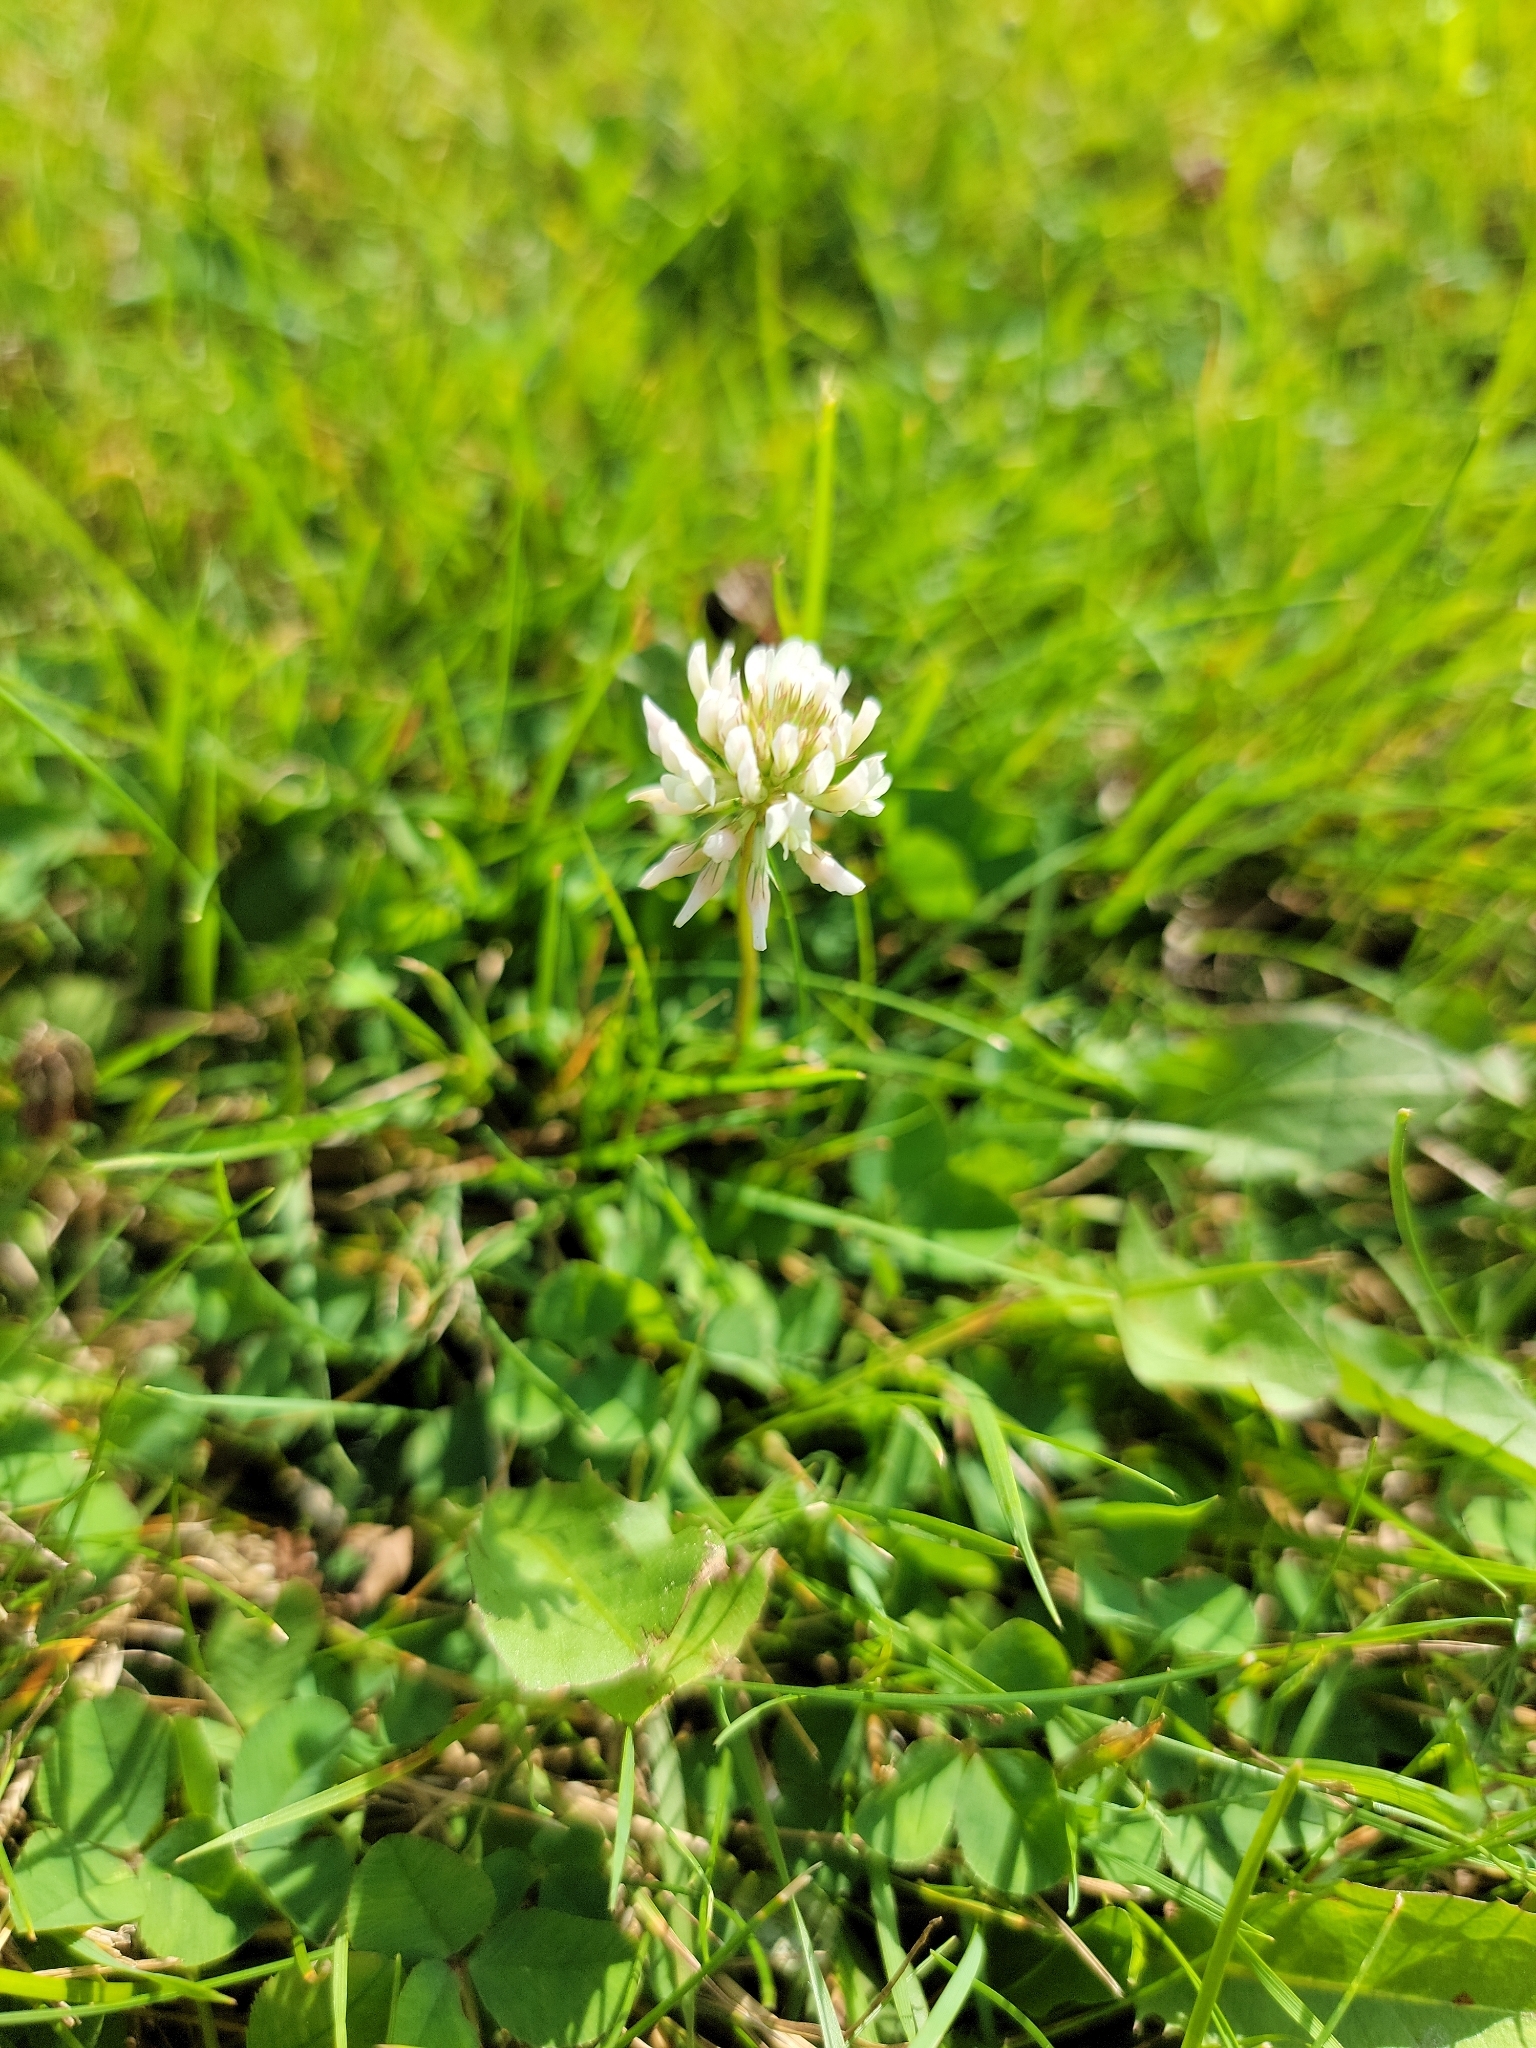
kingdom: Plantae
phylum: Tracheophyta
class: Magnoliopsida
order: Fabales
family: Fabaceae
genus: Trifolium
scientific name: Trifolium repens
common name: White clover
